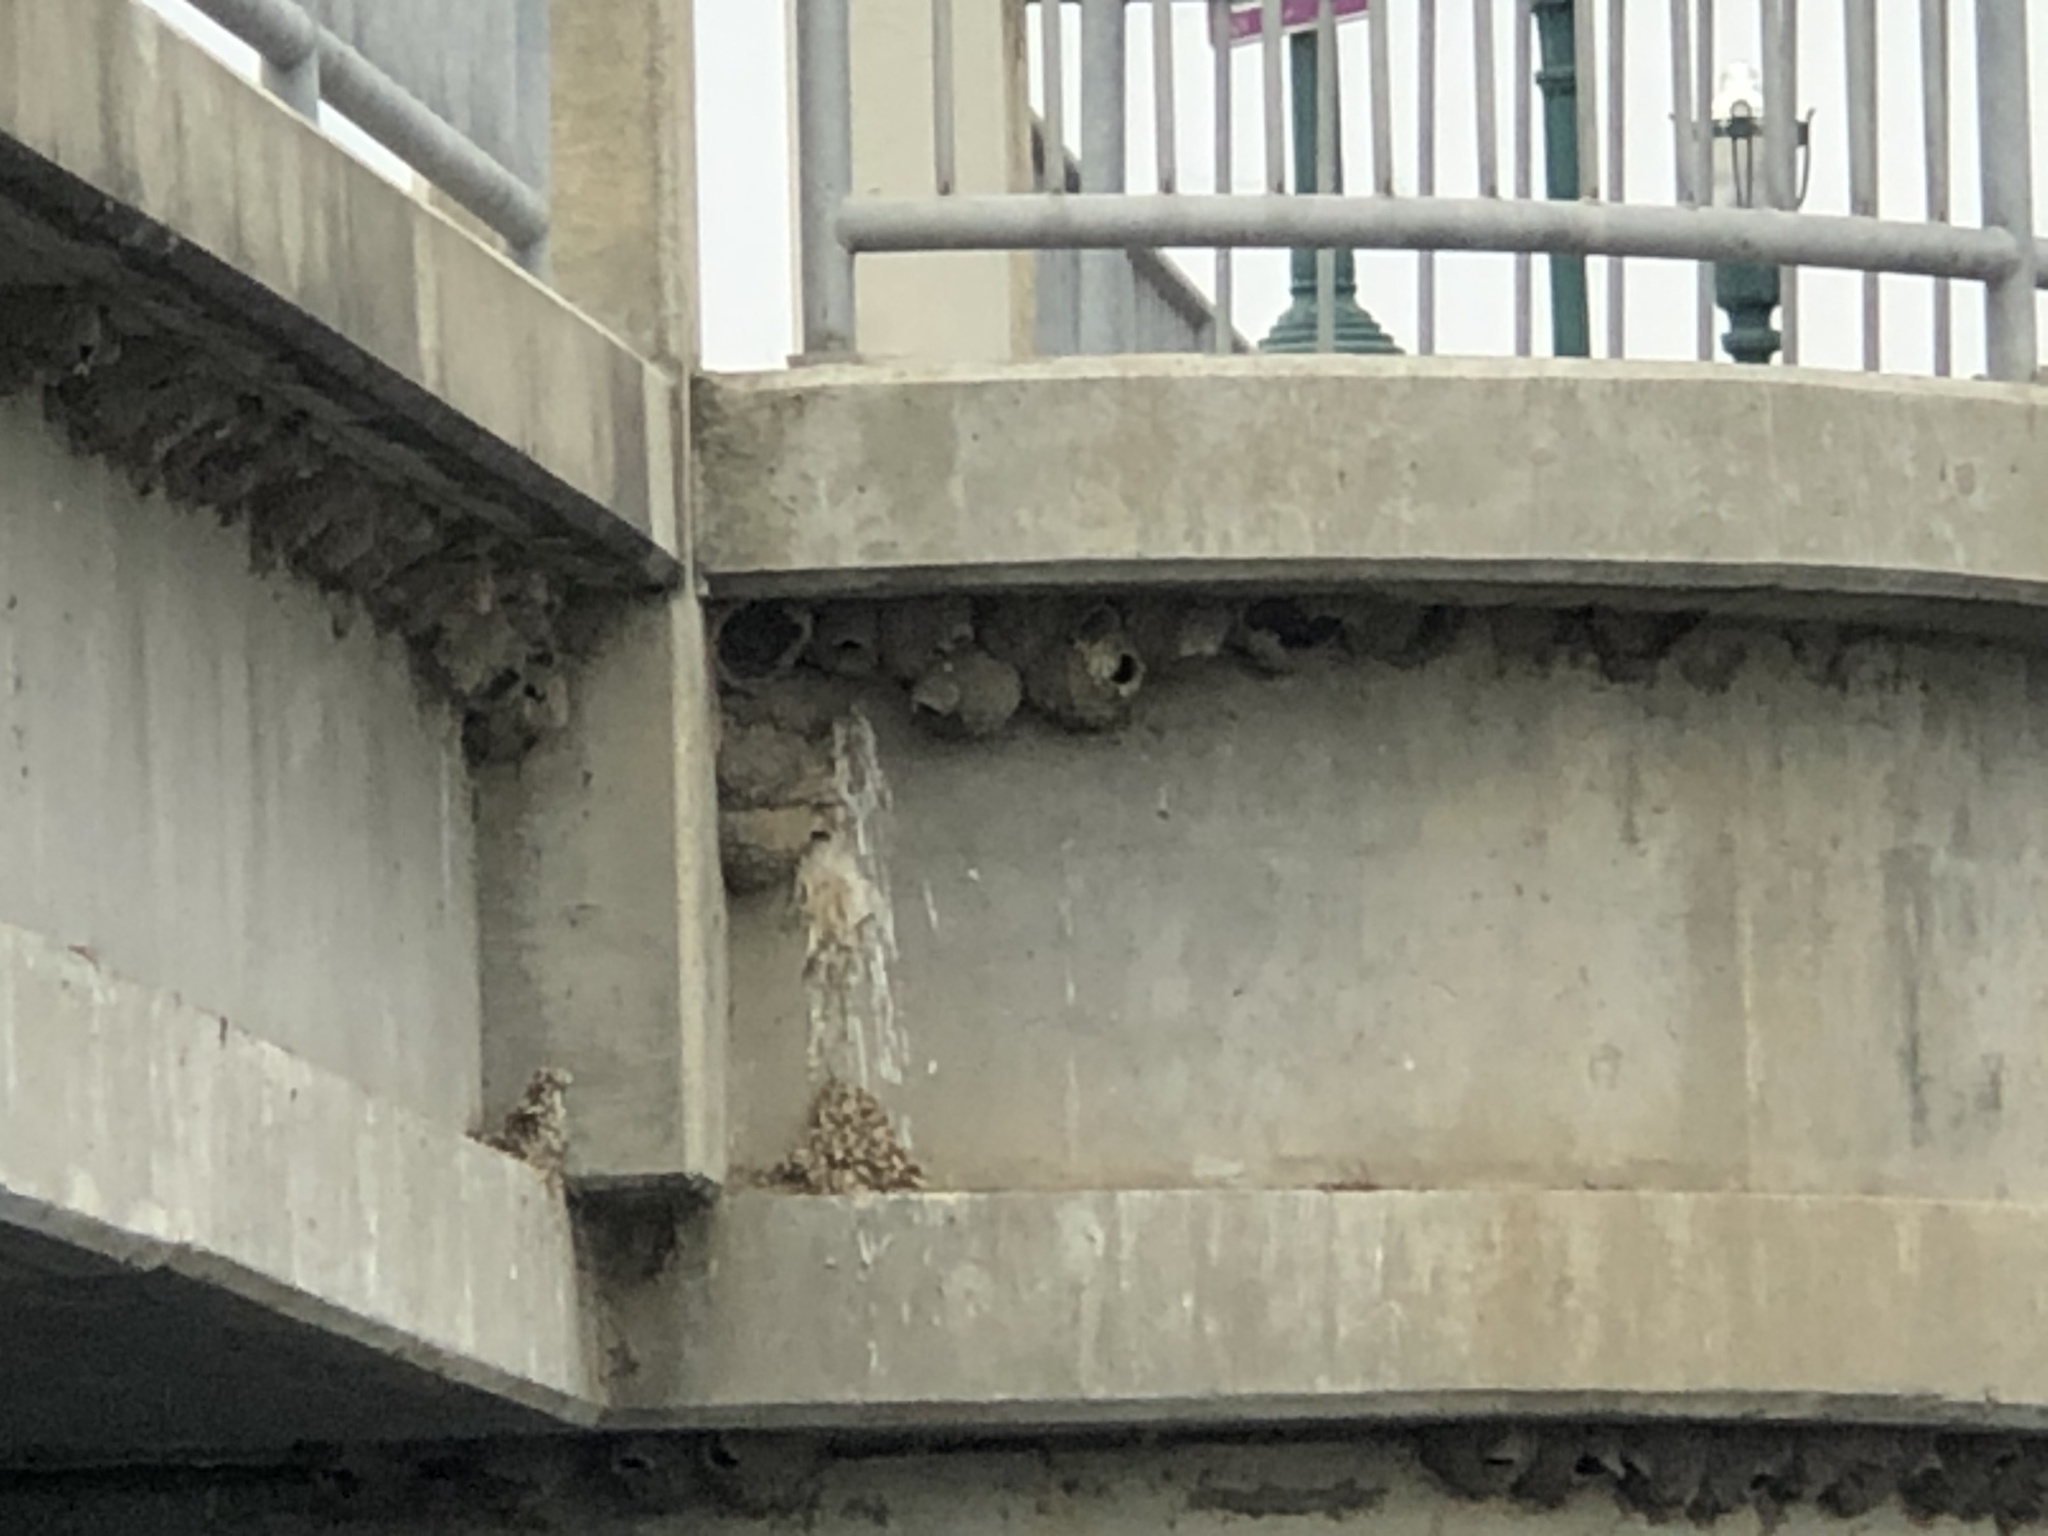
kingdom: Animalia
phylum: Chordata
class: Aves
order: Passeriformes
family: Hirundinidae
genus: Petrochelidon
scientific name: Petrochelidon pyrrhonota
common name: American cliff swallow
